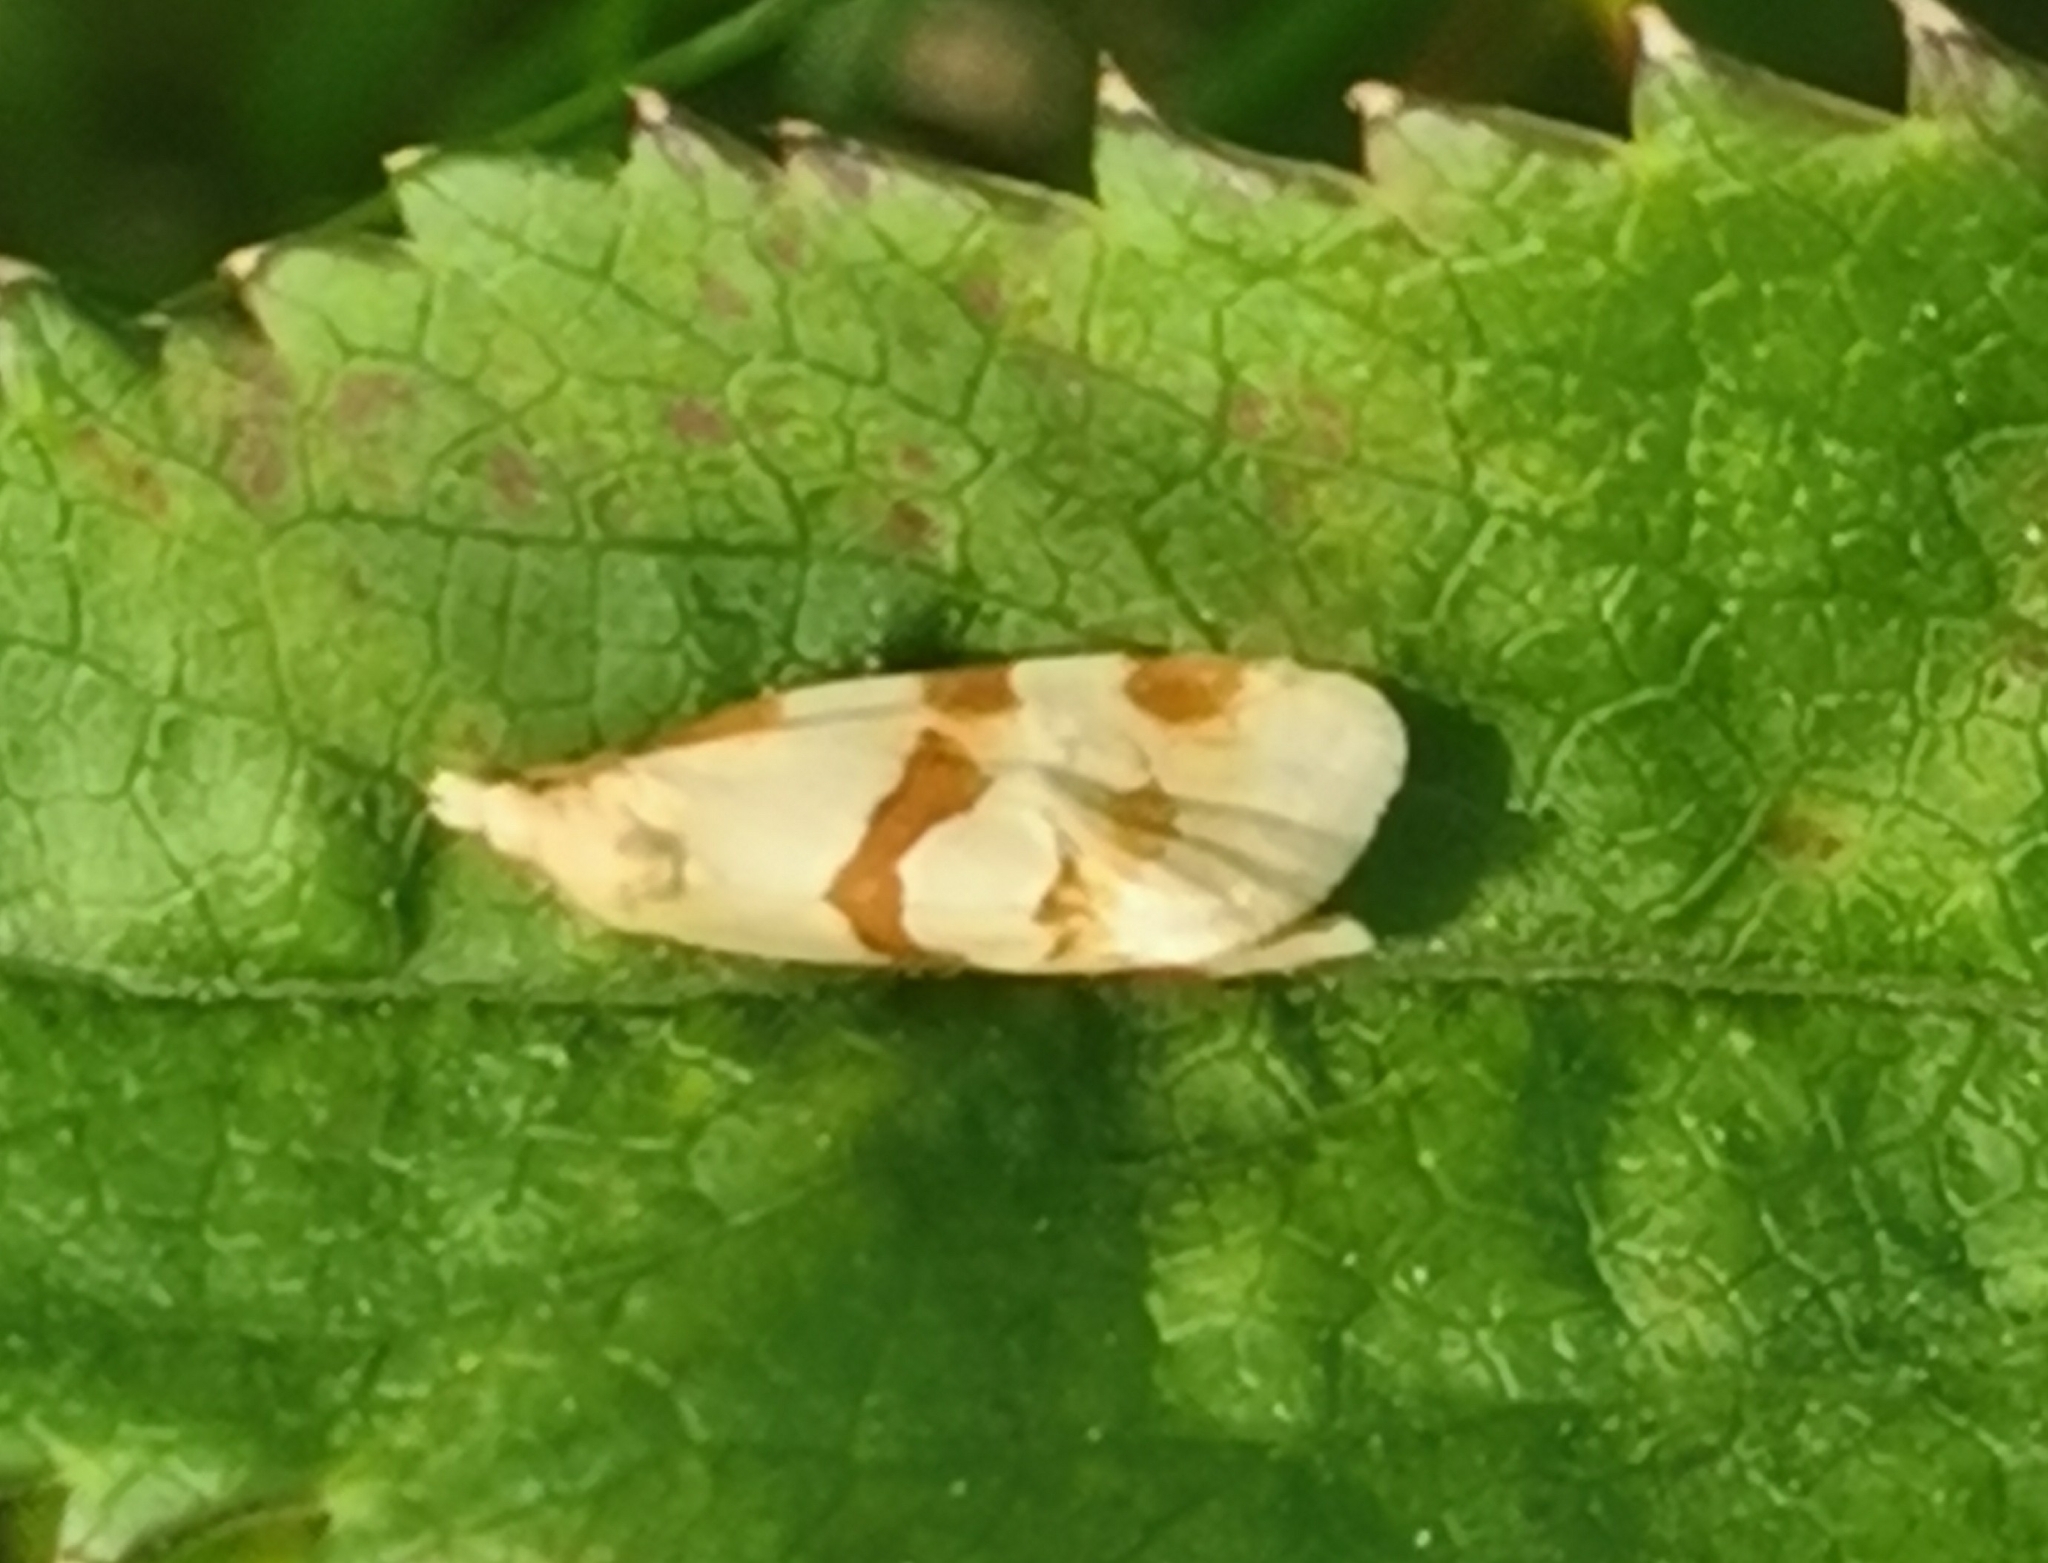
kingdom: Animalia
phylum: Arthropoda
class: Insecta
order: Lepidoptera
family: Tortricidae
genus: Aethes
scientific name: Aethes cnicana
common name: Thistle conch
